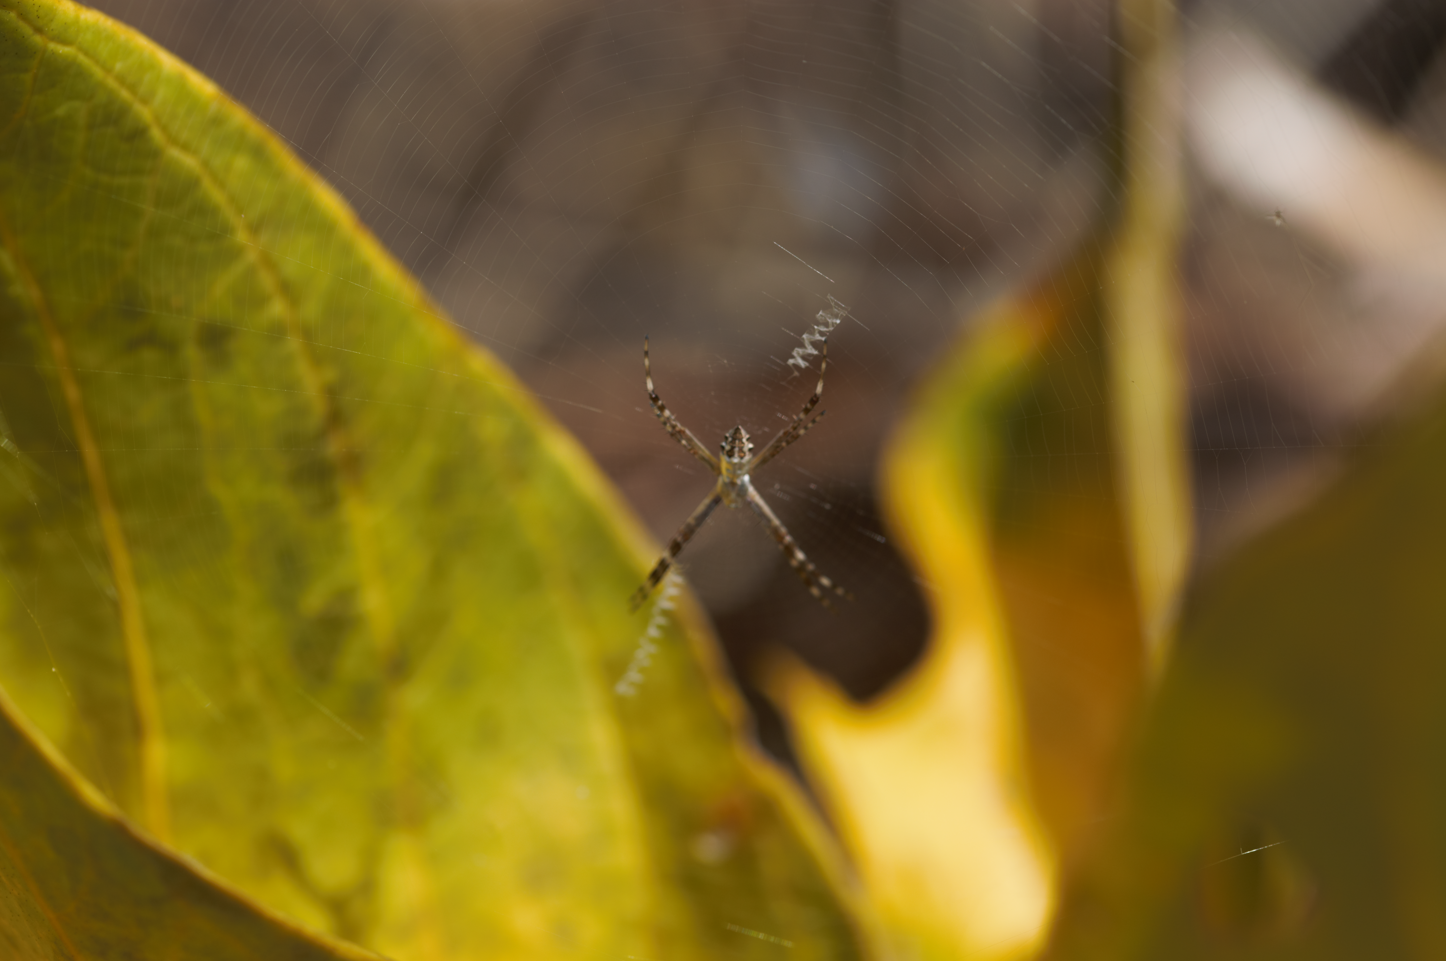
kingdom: Animalia
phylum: Arthropoda
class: Arachnida
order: Araneae
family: Araneidae
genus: Argiope
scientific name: Argiope argentata
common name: Orb weavers
